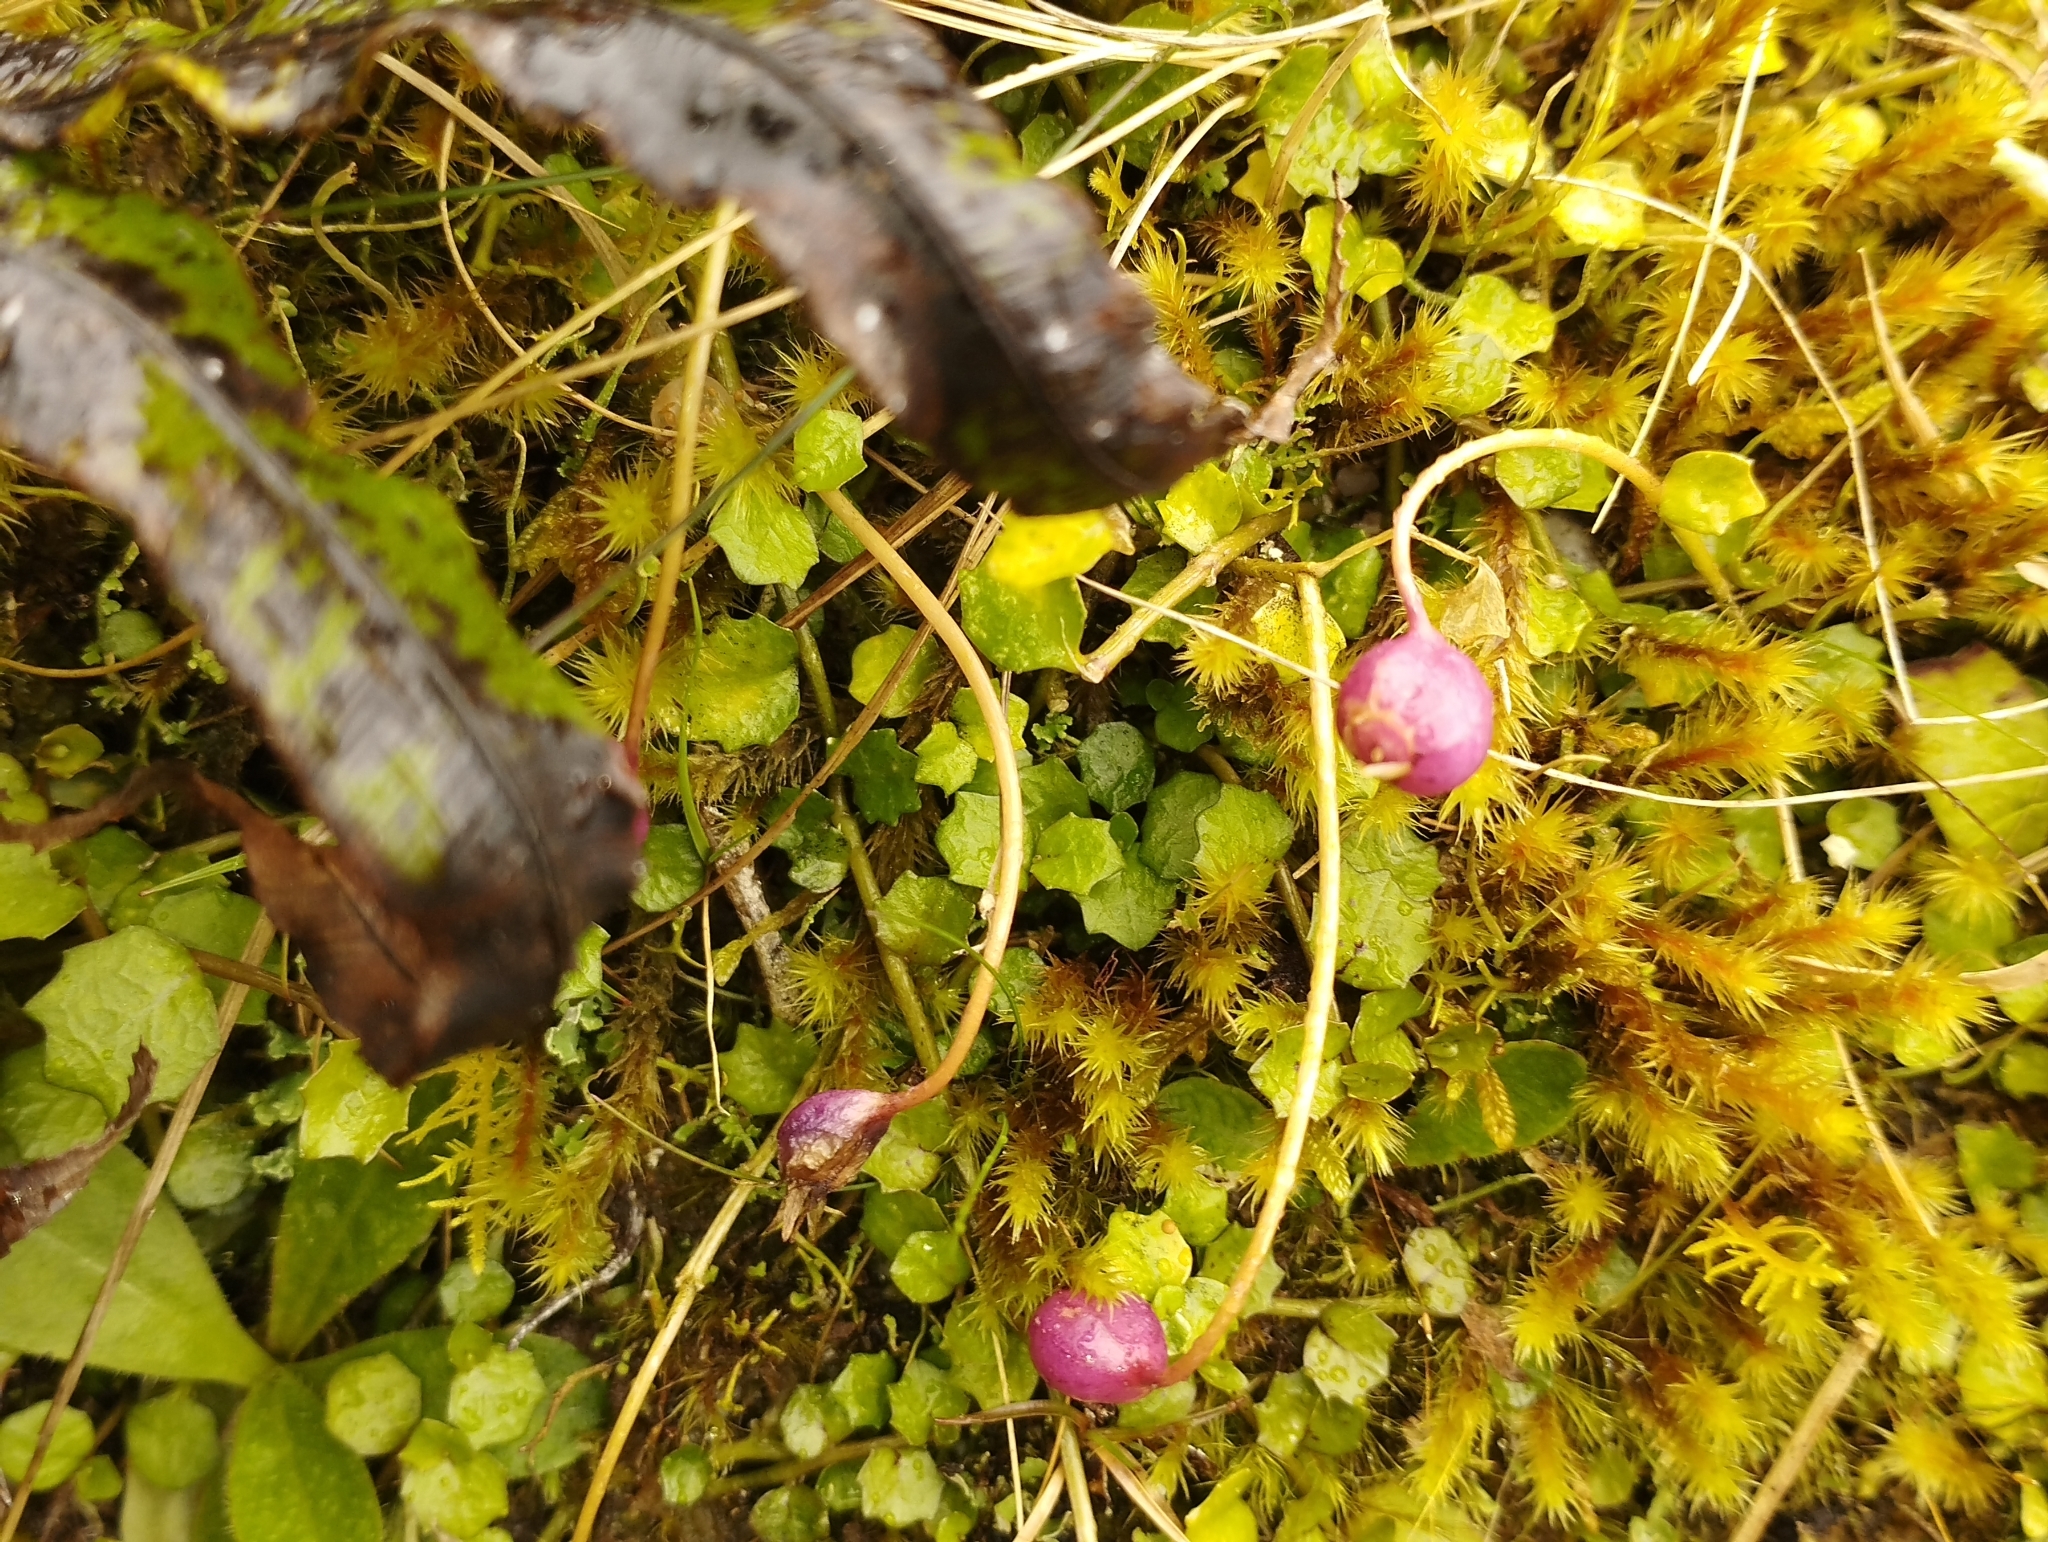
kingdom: Plantae
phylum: Tracheophyta
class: Magnoliopsida
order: Asterales
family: Campanulaceae
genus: Lobelia
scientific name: Lobelia angulata
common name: Lawn lobelia
